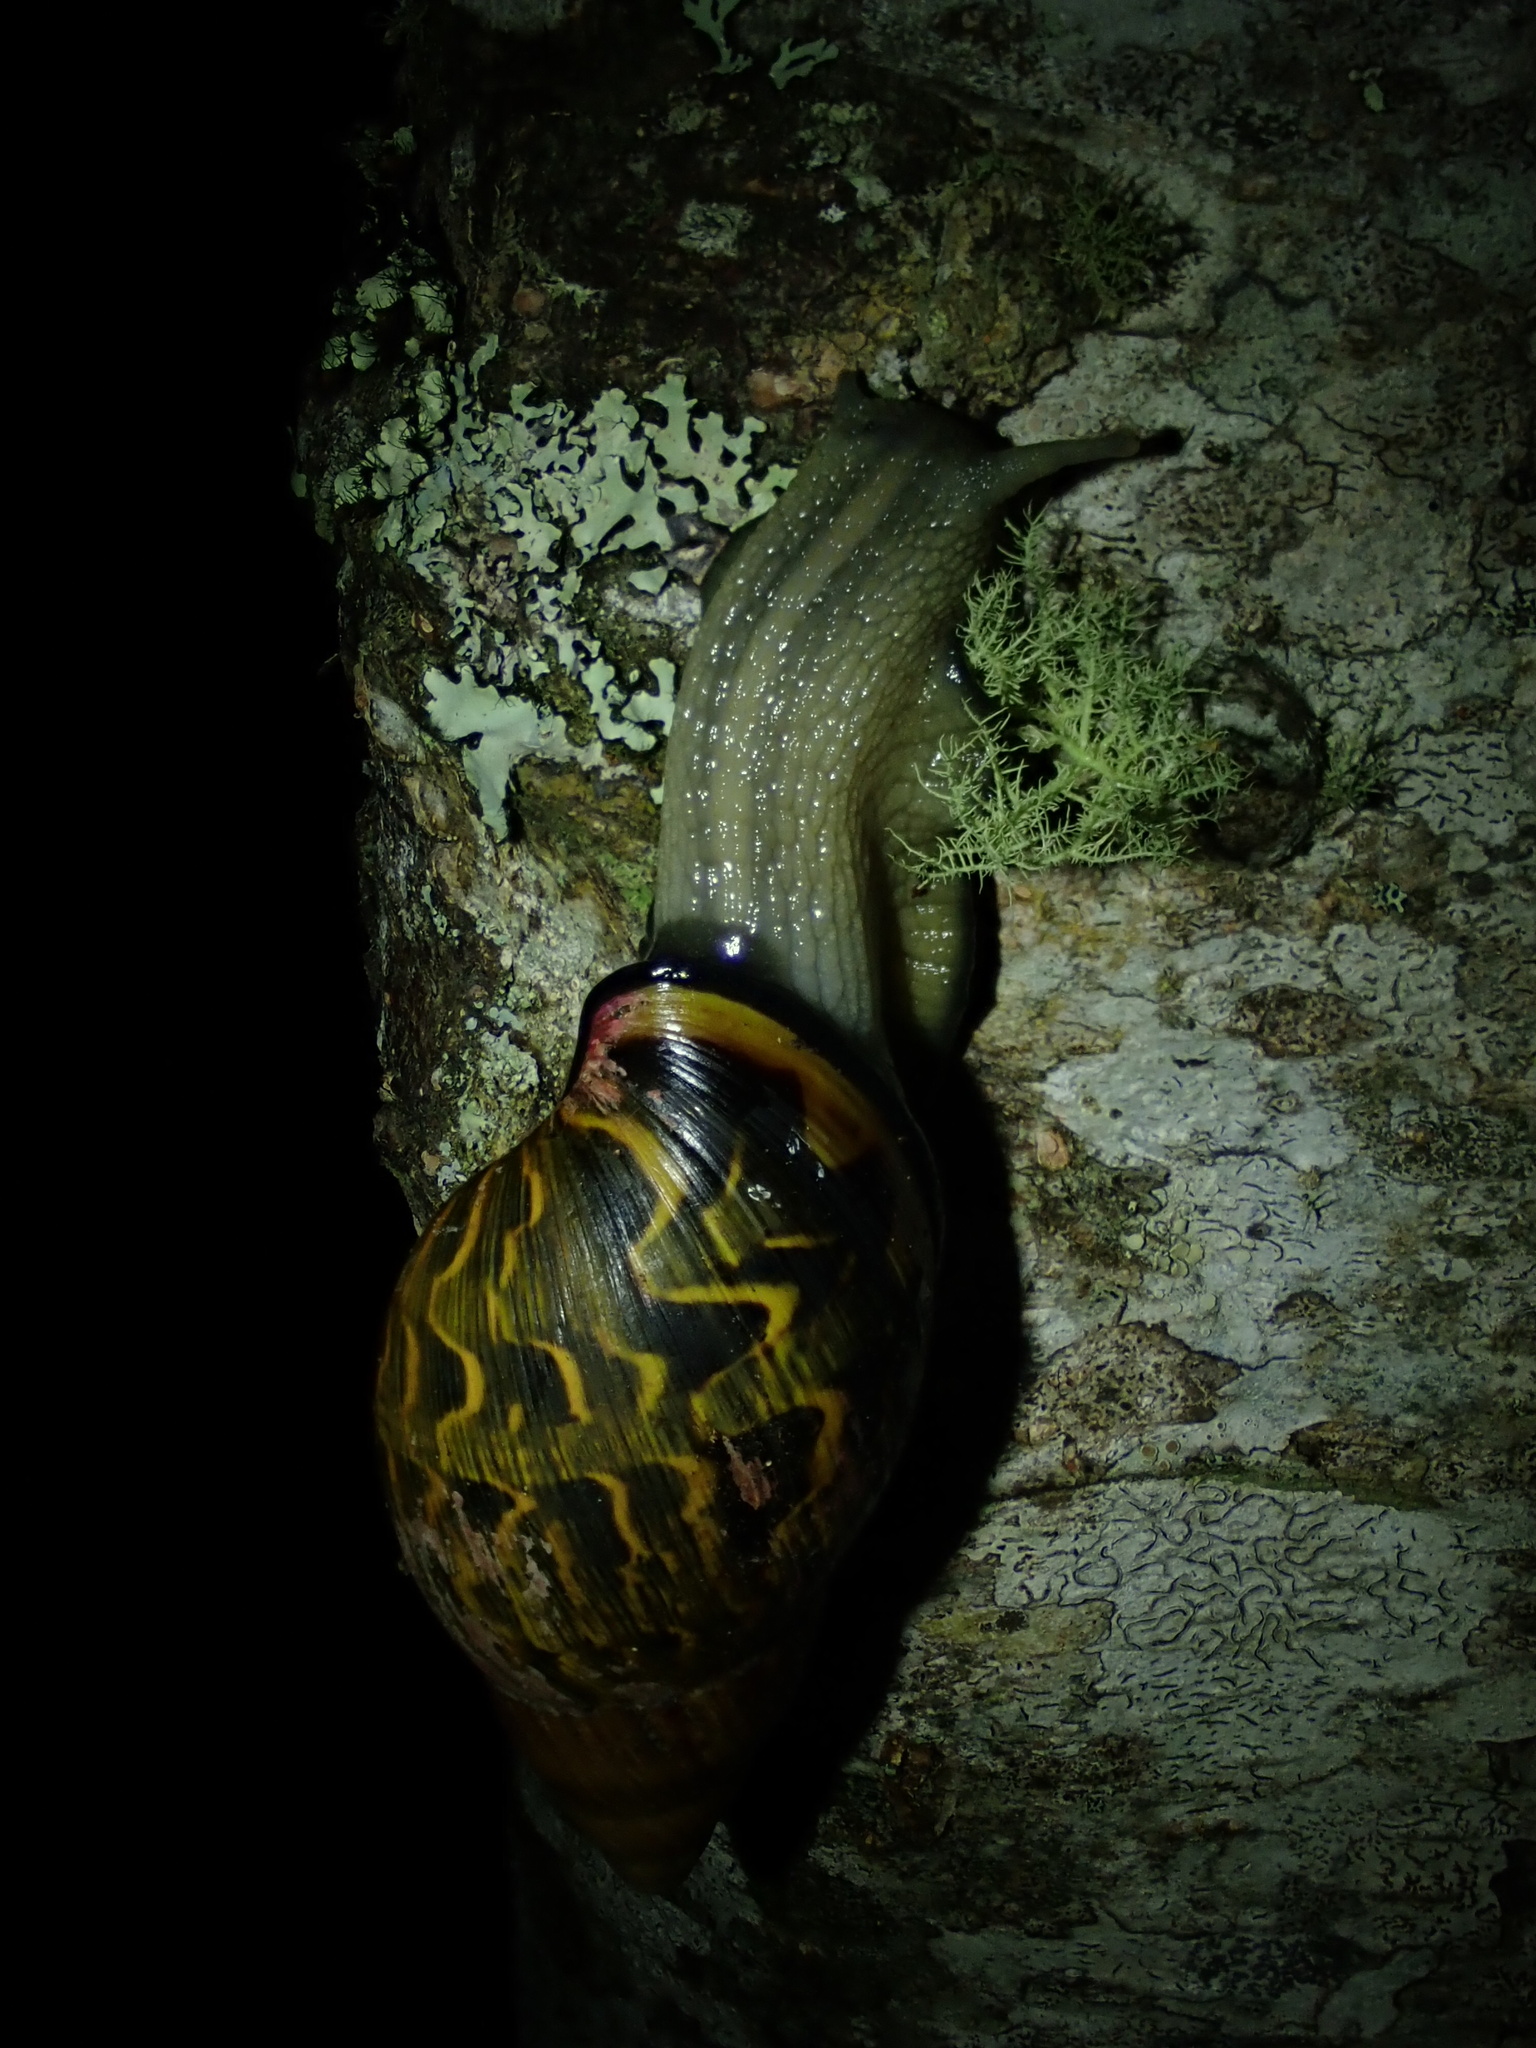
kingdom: Animalia
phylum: Mollusca
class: Gastropoda
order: Stylommatophora
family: Orthalicidae
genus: Sultana
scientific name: Sultana kellettii
